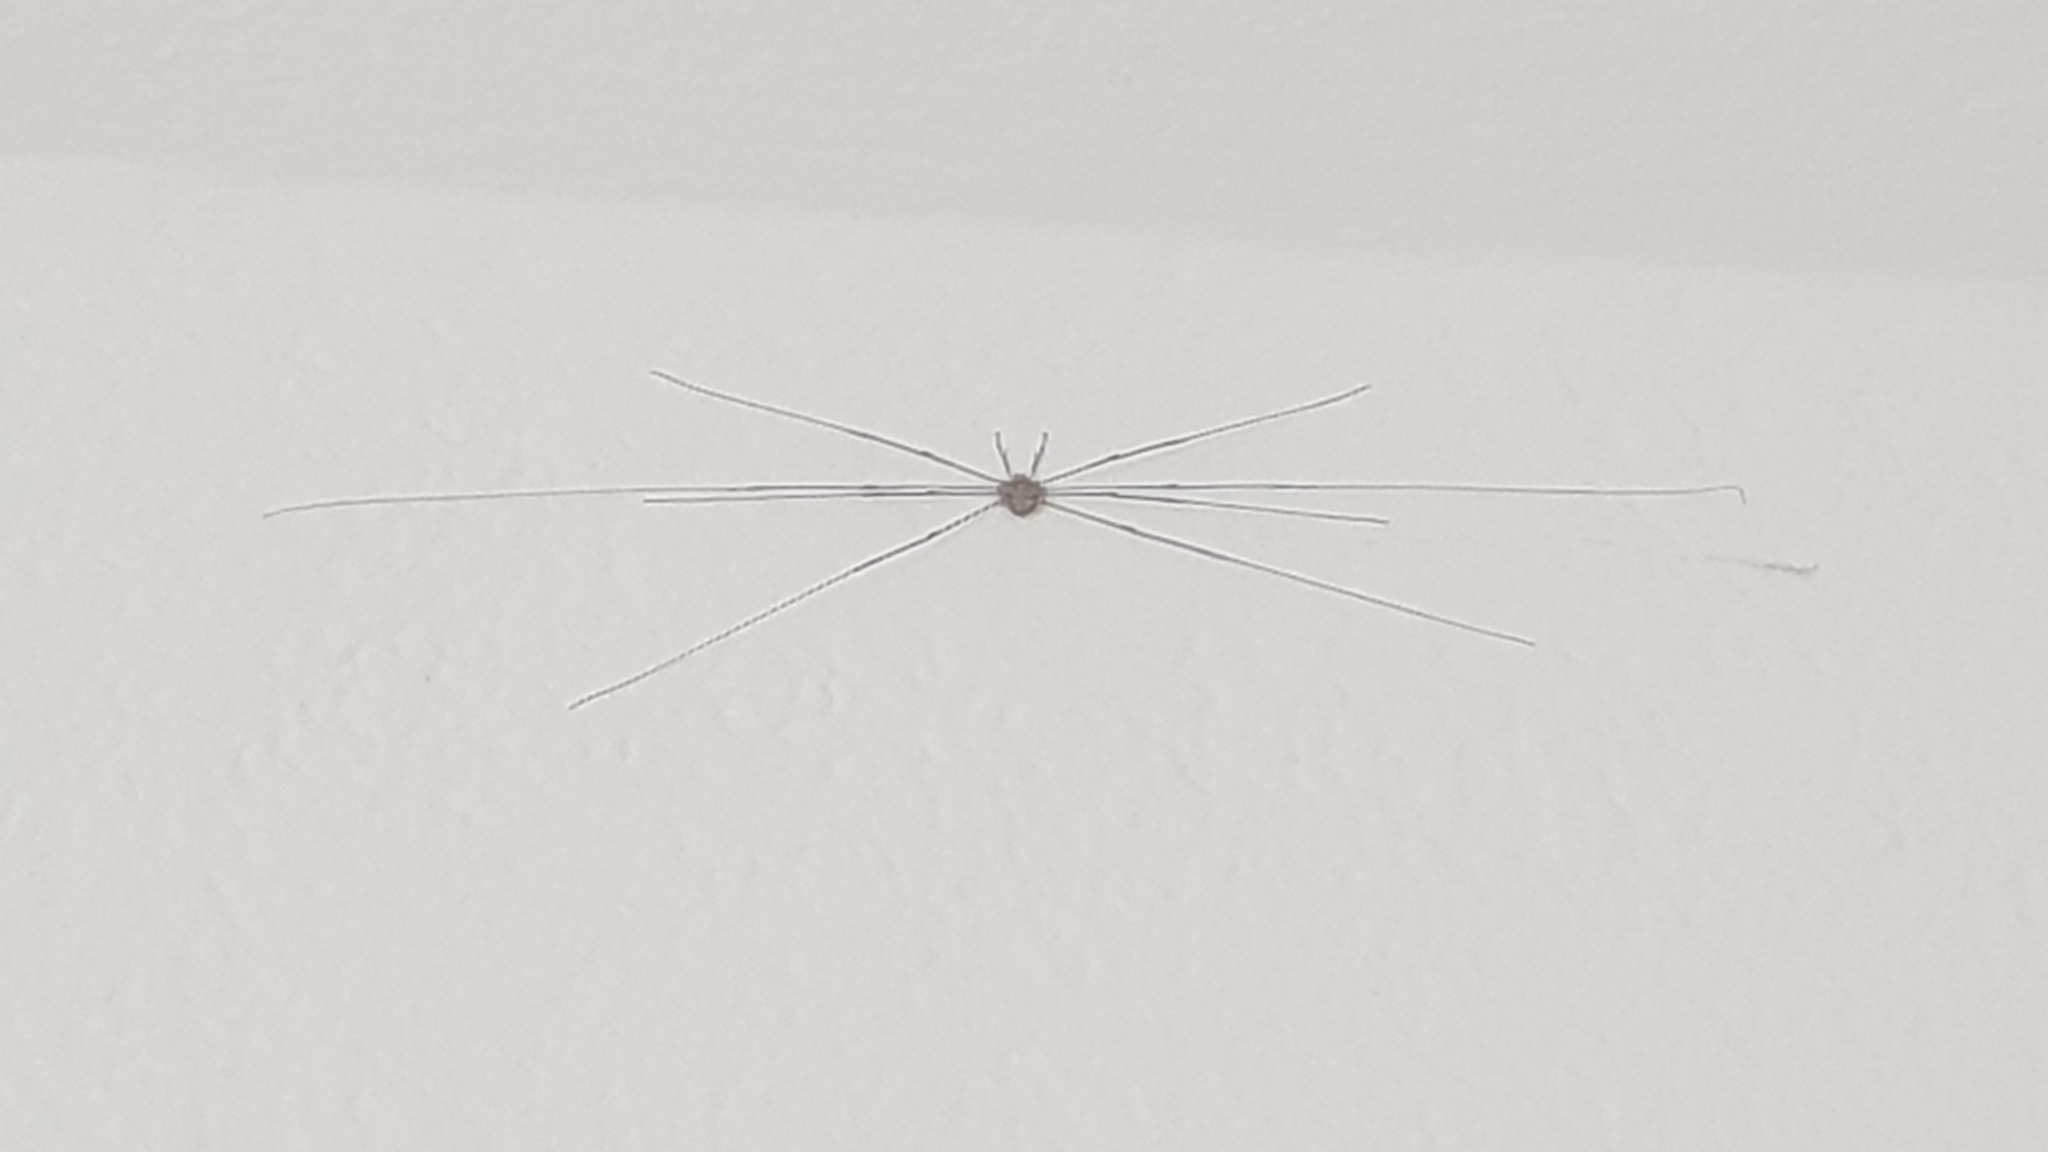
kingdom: Animalia
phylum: Arthropoda
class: Arachnida
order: Opiliones
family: Phalangiidae
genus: Dicranopalpus
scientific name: Dicranopalpus ramosus
